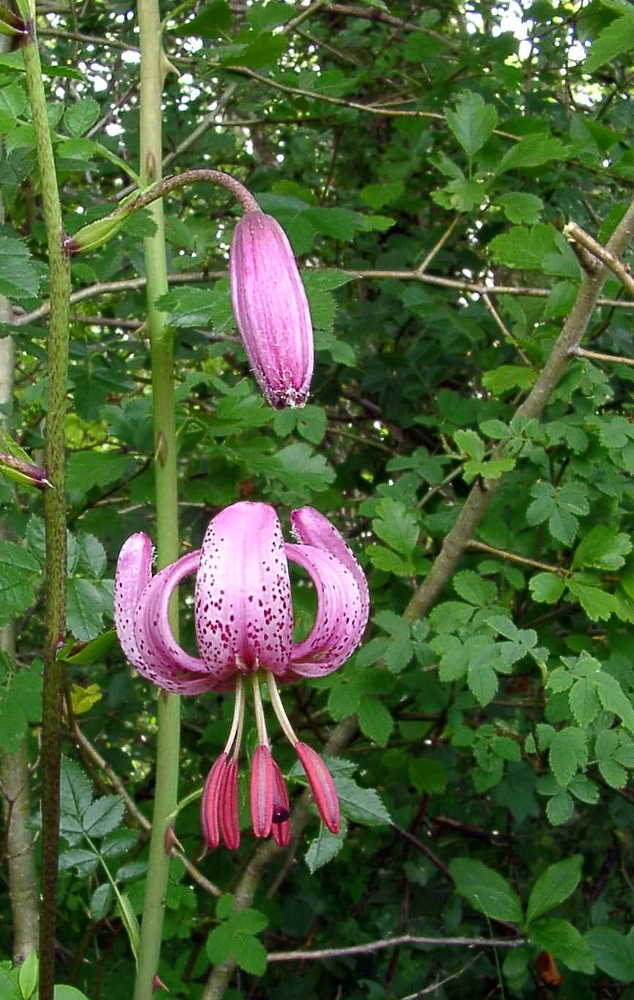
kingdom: Plantae
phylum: Tracheophyta
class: Liliopsida
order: Liliales
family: Liliaceae
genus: Lilium
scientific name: Lilium martagon
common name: Martagon lily
